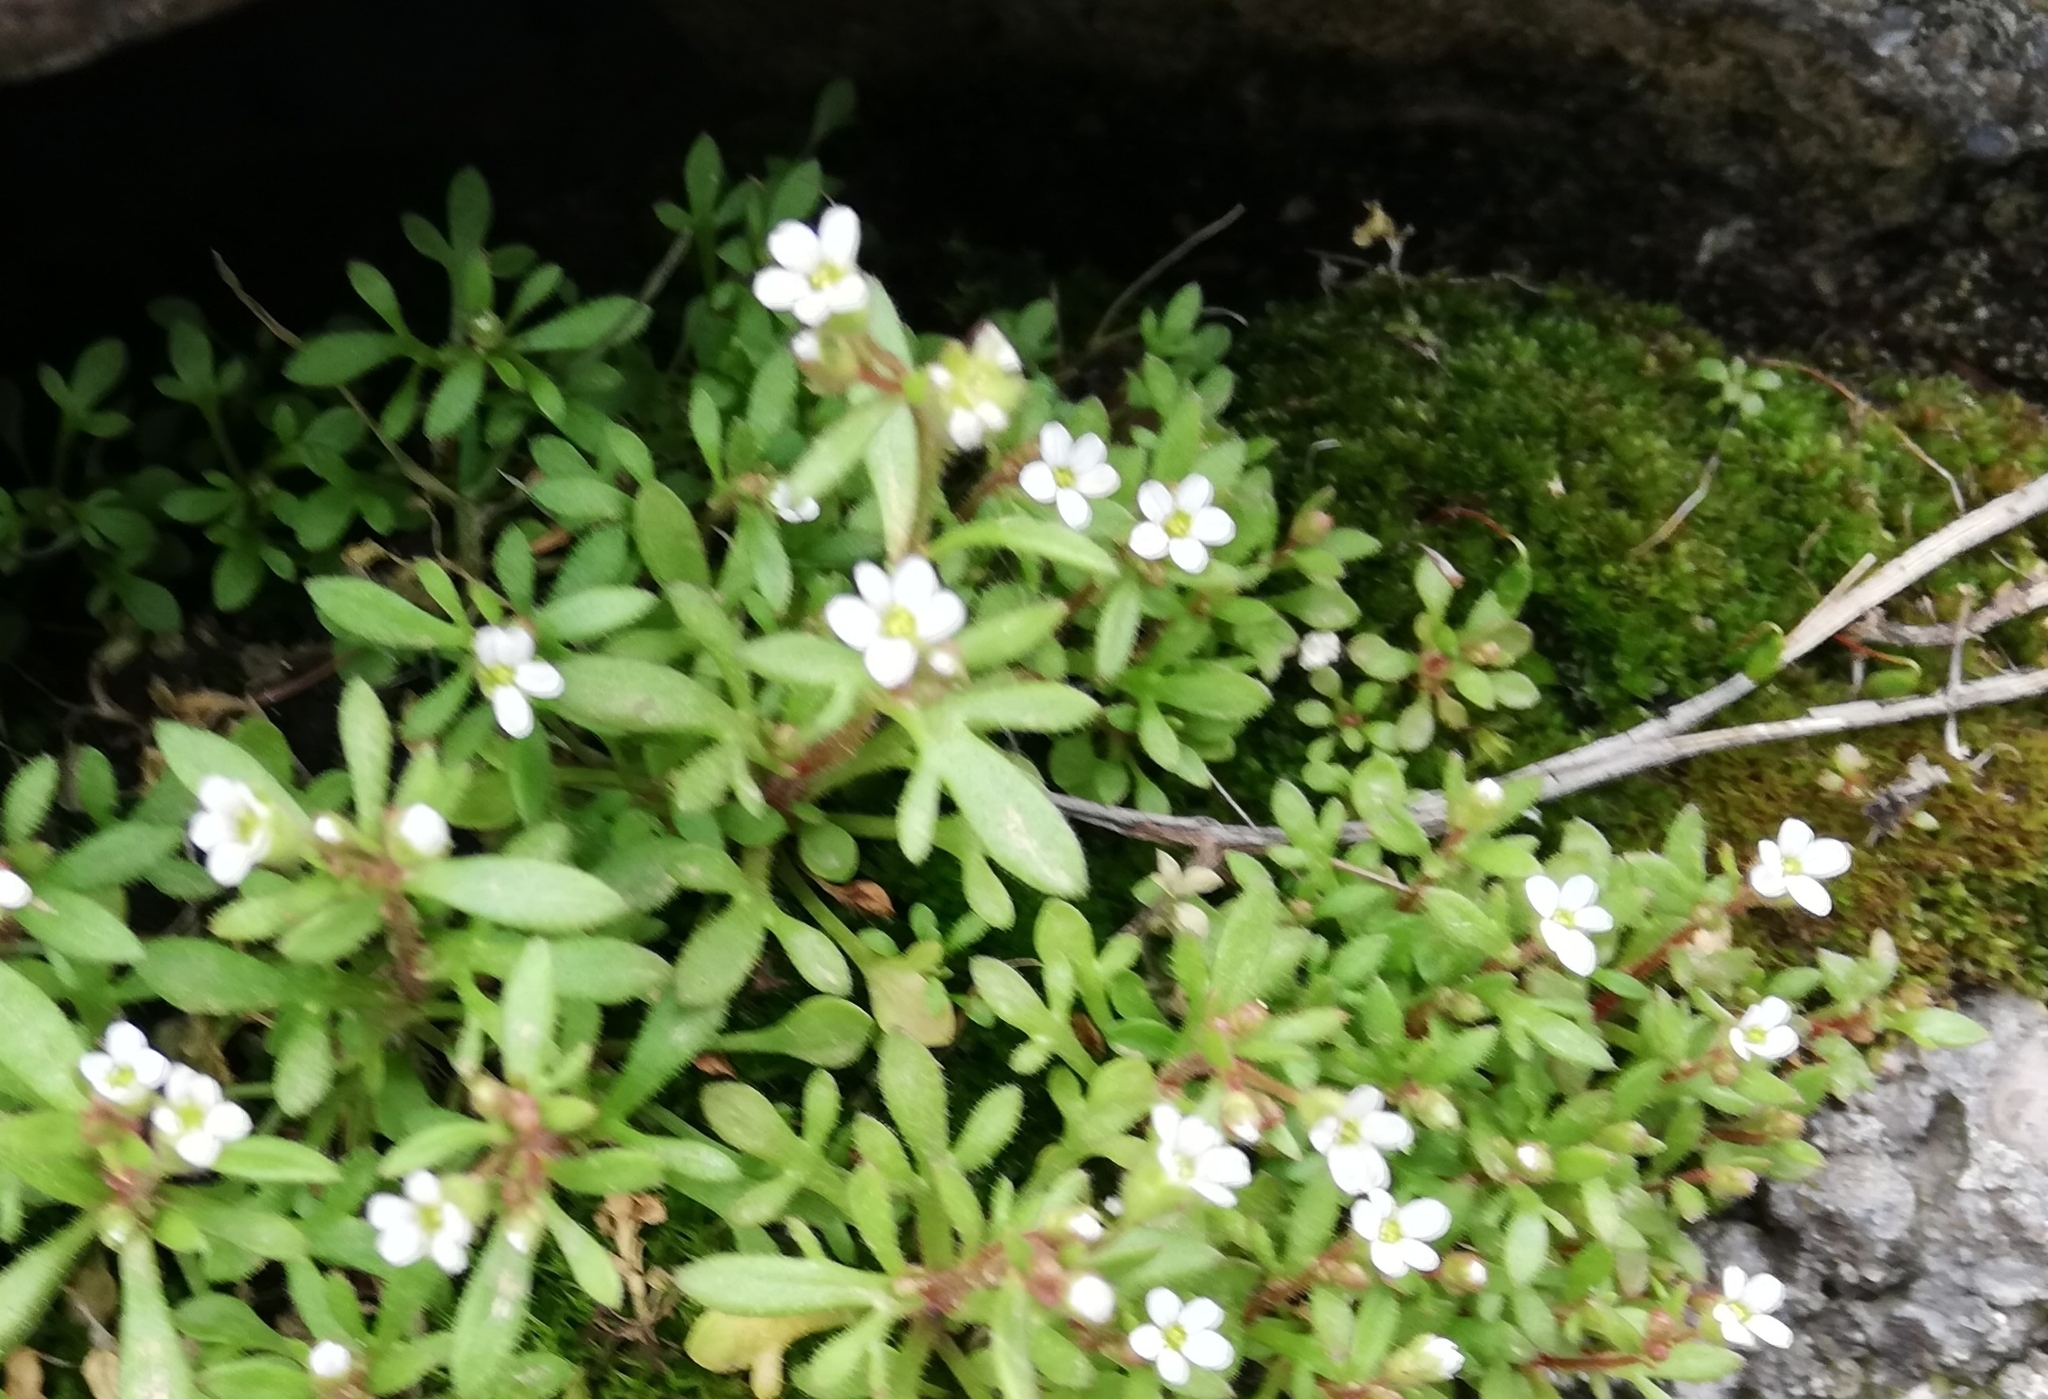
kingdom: Plantae
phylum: Tracheophyta
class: Magnoliopsida
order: Saxifragales
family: Saxifragaceae
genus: Saxifraga
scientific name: Saxifraga tridactylites
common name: Rue-leaved saxifrage
